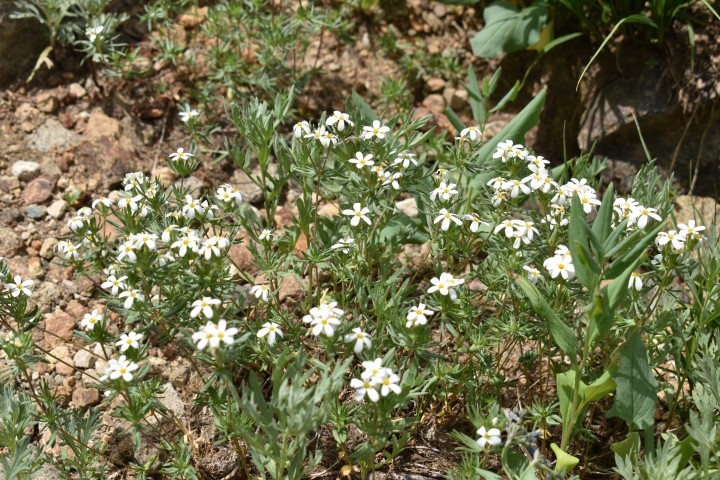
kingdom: Plantae
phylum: Tracheophyta
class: Magnoliopsida
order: Ericales
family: Polemoniaceae
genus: Leptosiphon
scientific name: Leptosiphon nuttallii
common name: Nuttall's linanthus
